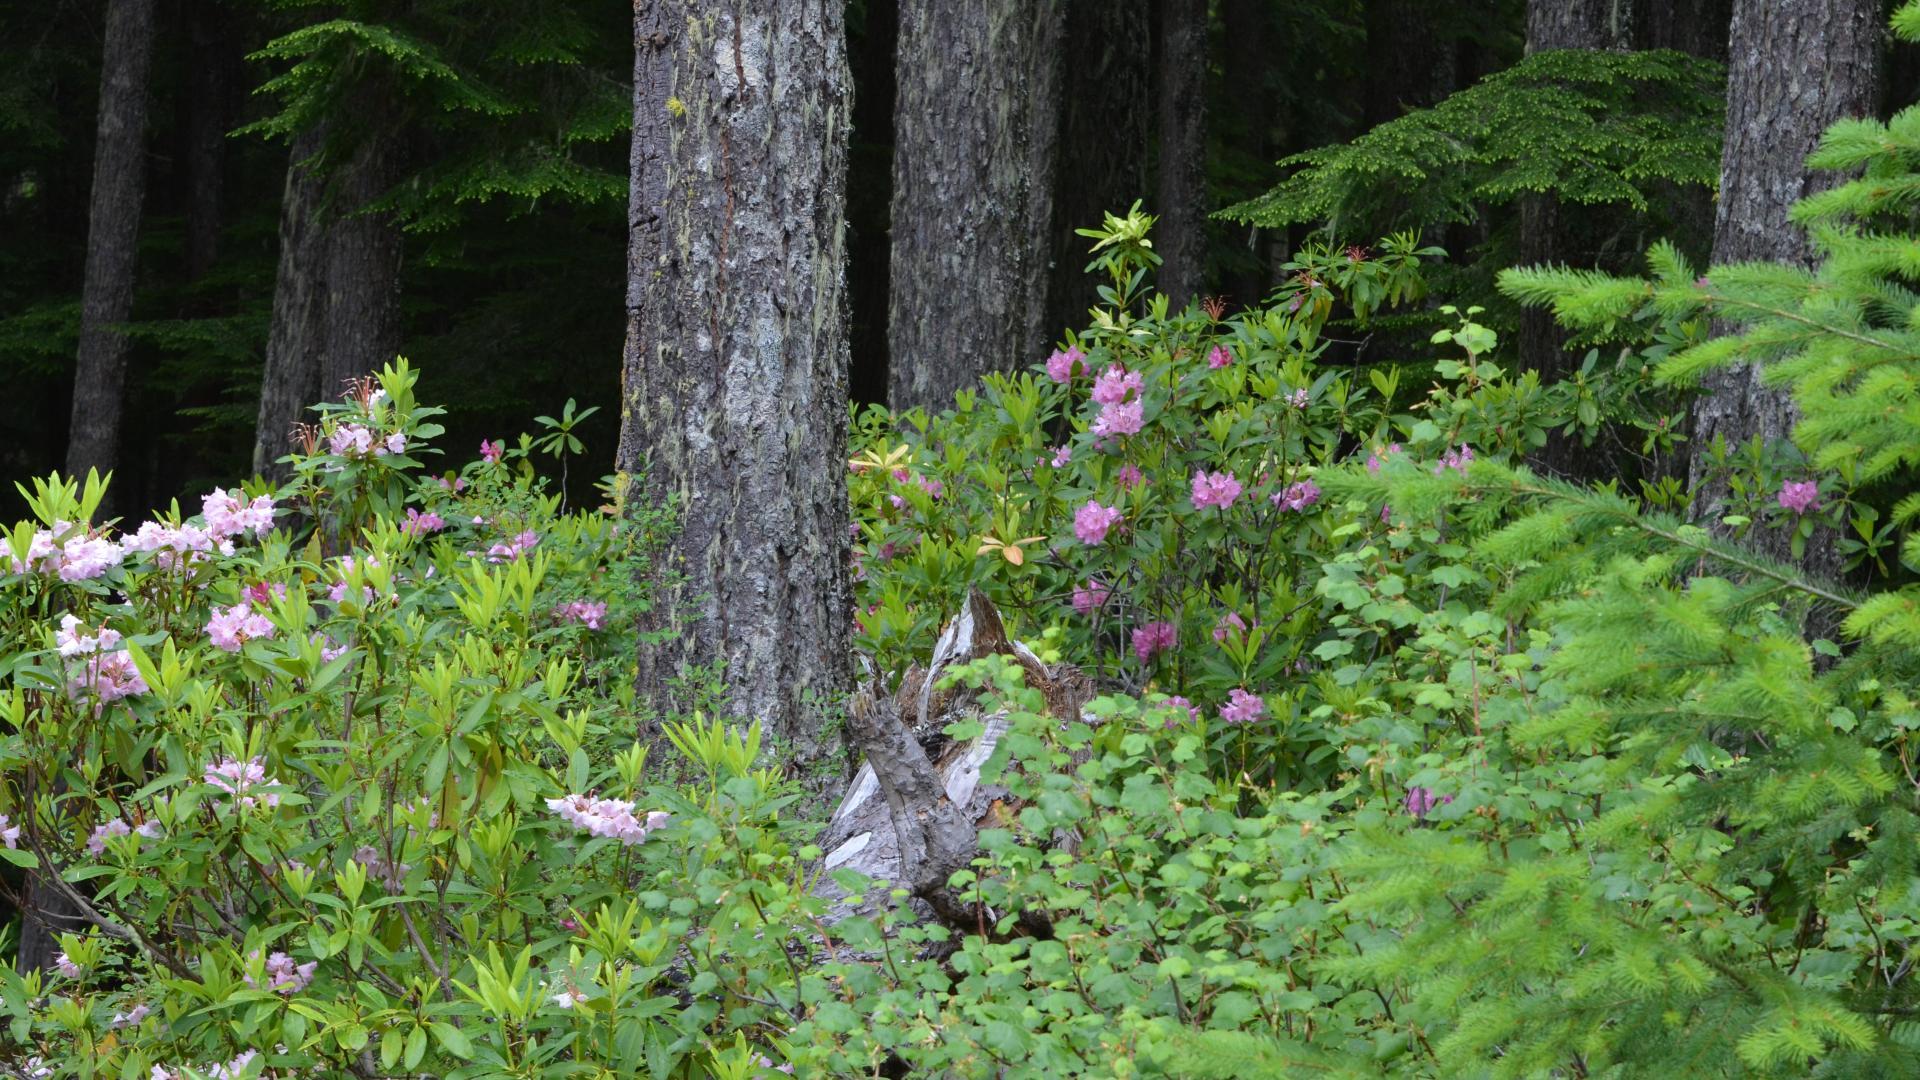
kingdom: Plantae
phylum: Tracheophyta
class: Magnoliopsida
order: Ericales
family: Ericaceae
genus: Rhododendron
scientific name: Rhododendron macrophyllum
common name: California rose bay
